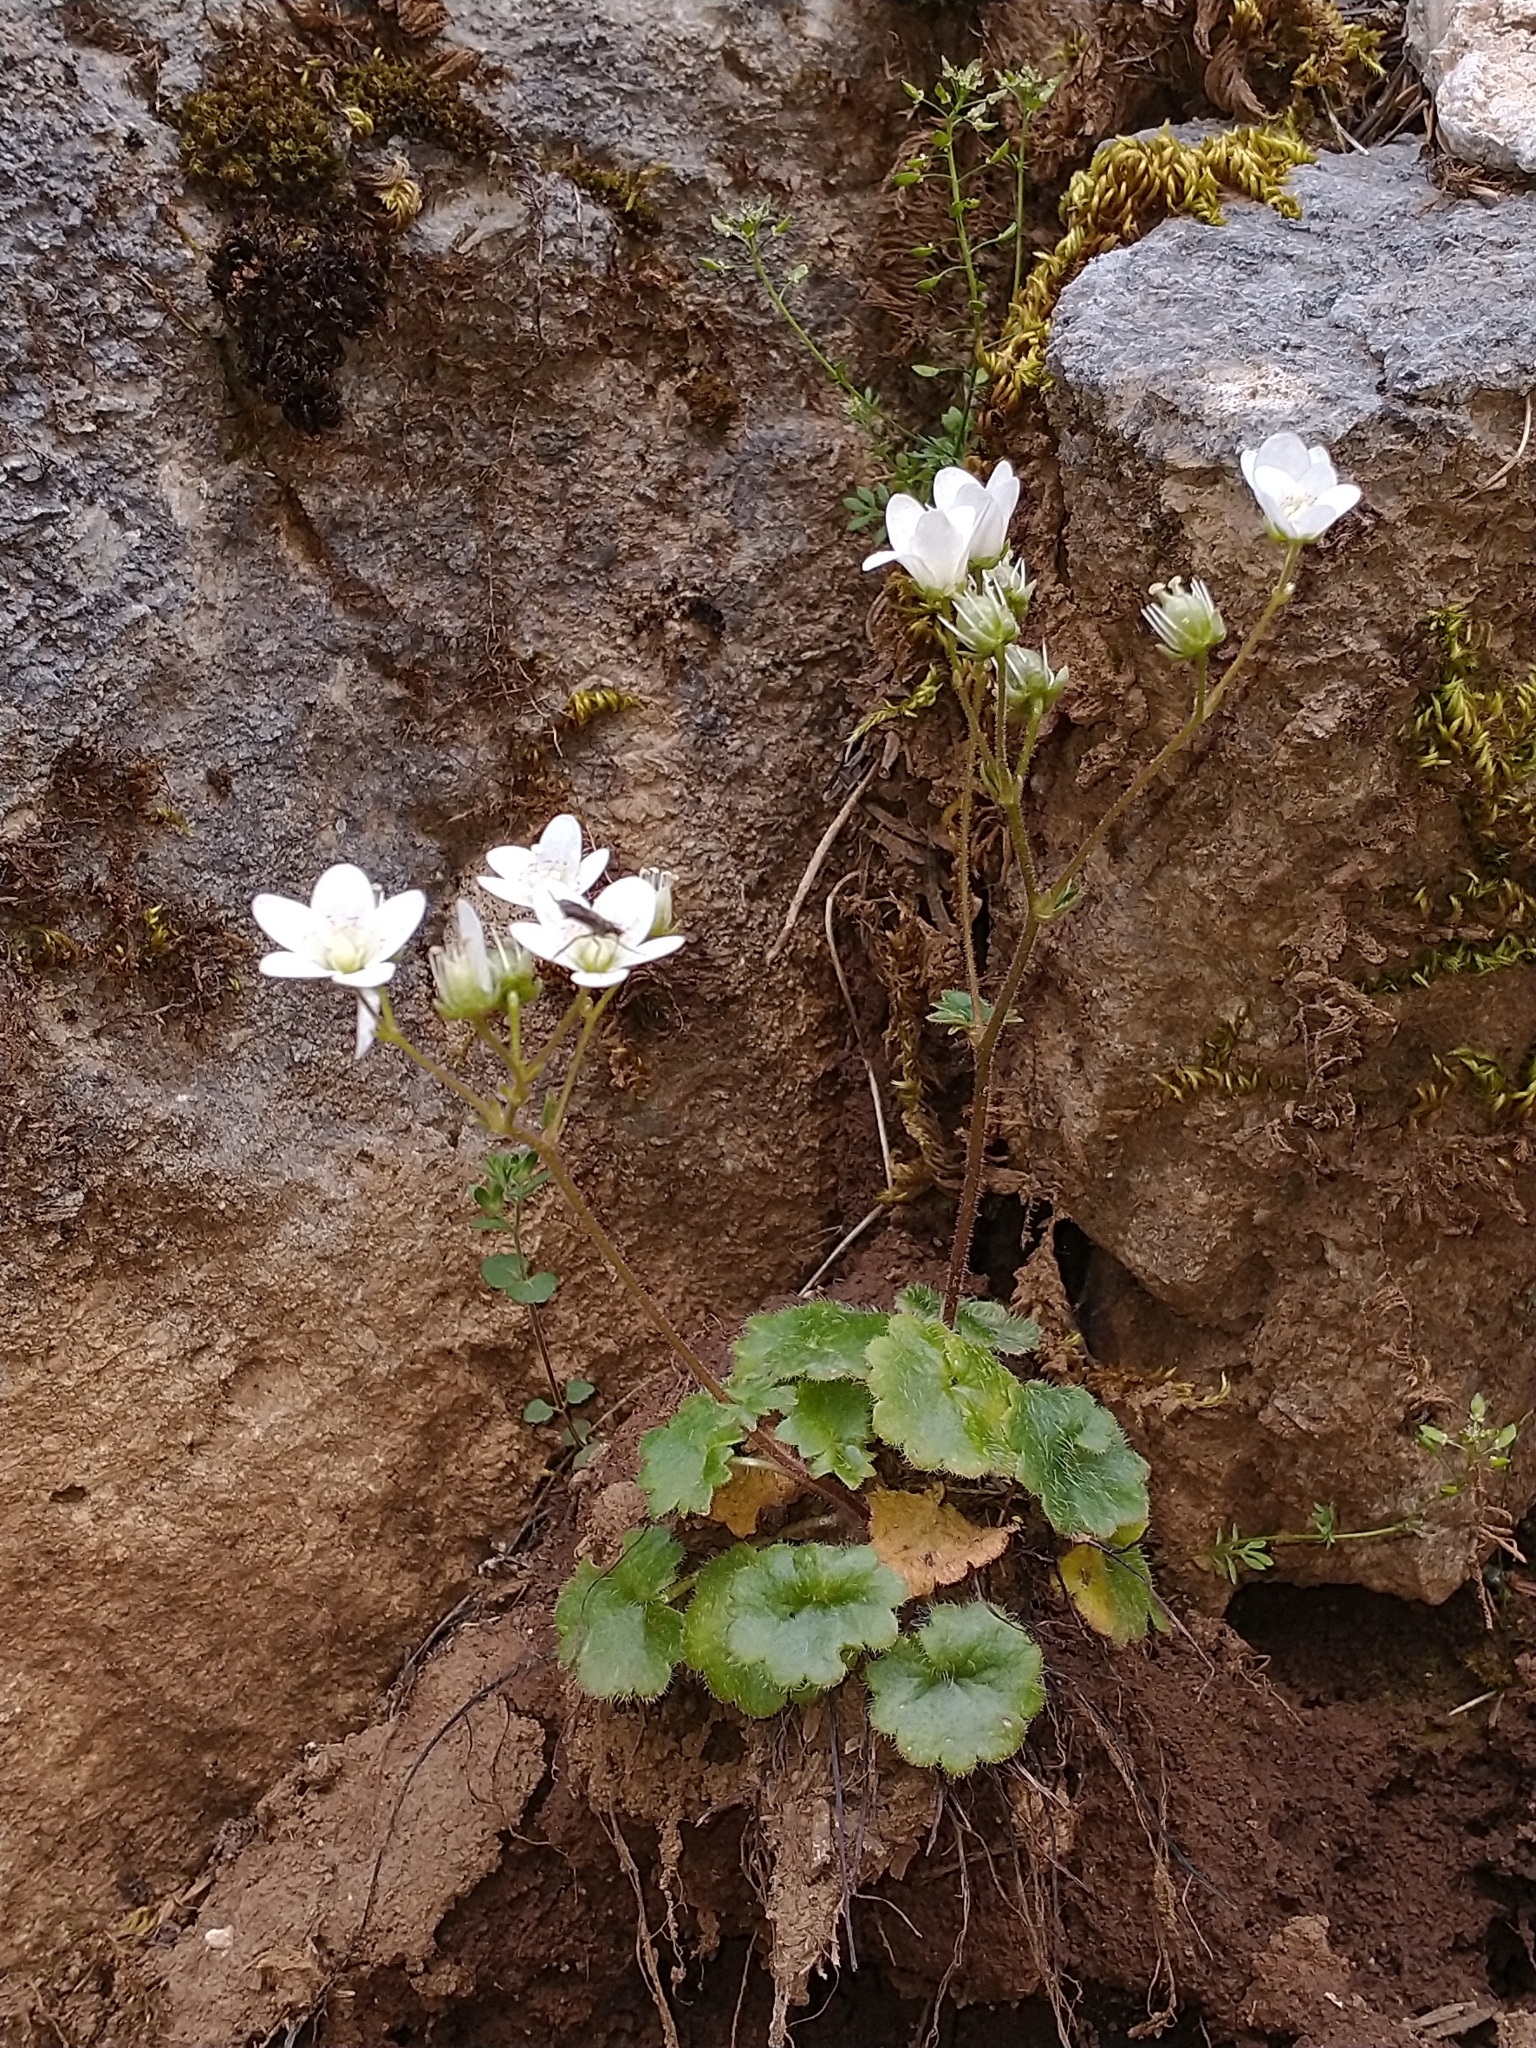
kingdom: Plantae
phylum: Tracheophyta
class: Magnoliopsida
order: Saxifragales
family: Saxifragaceae
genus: Saxifraga
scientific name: Saxifraga rotundifolia
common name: Round-leaved saxifrage
